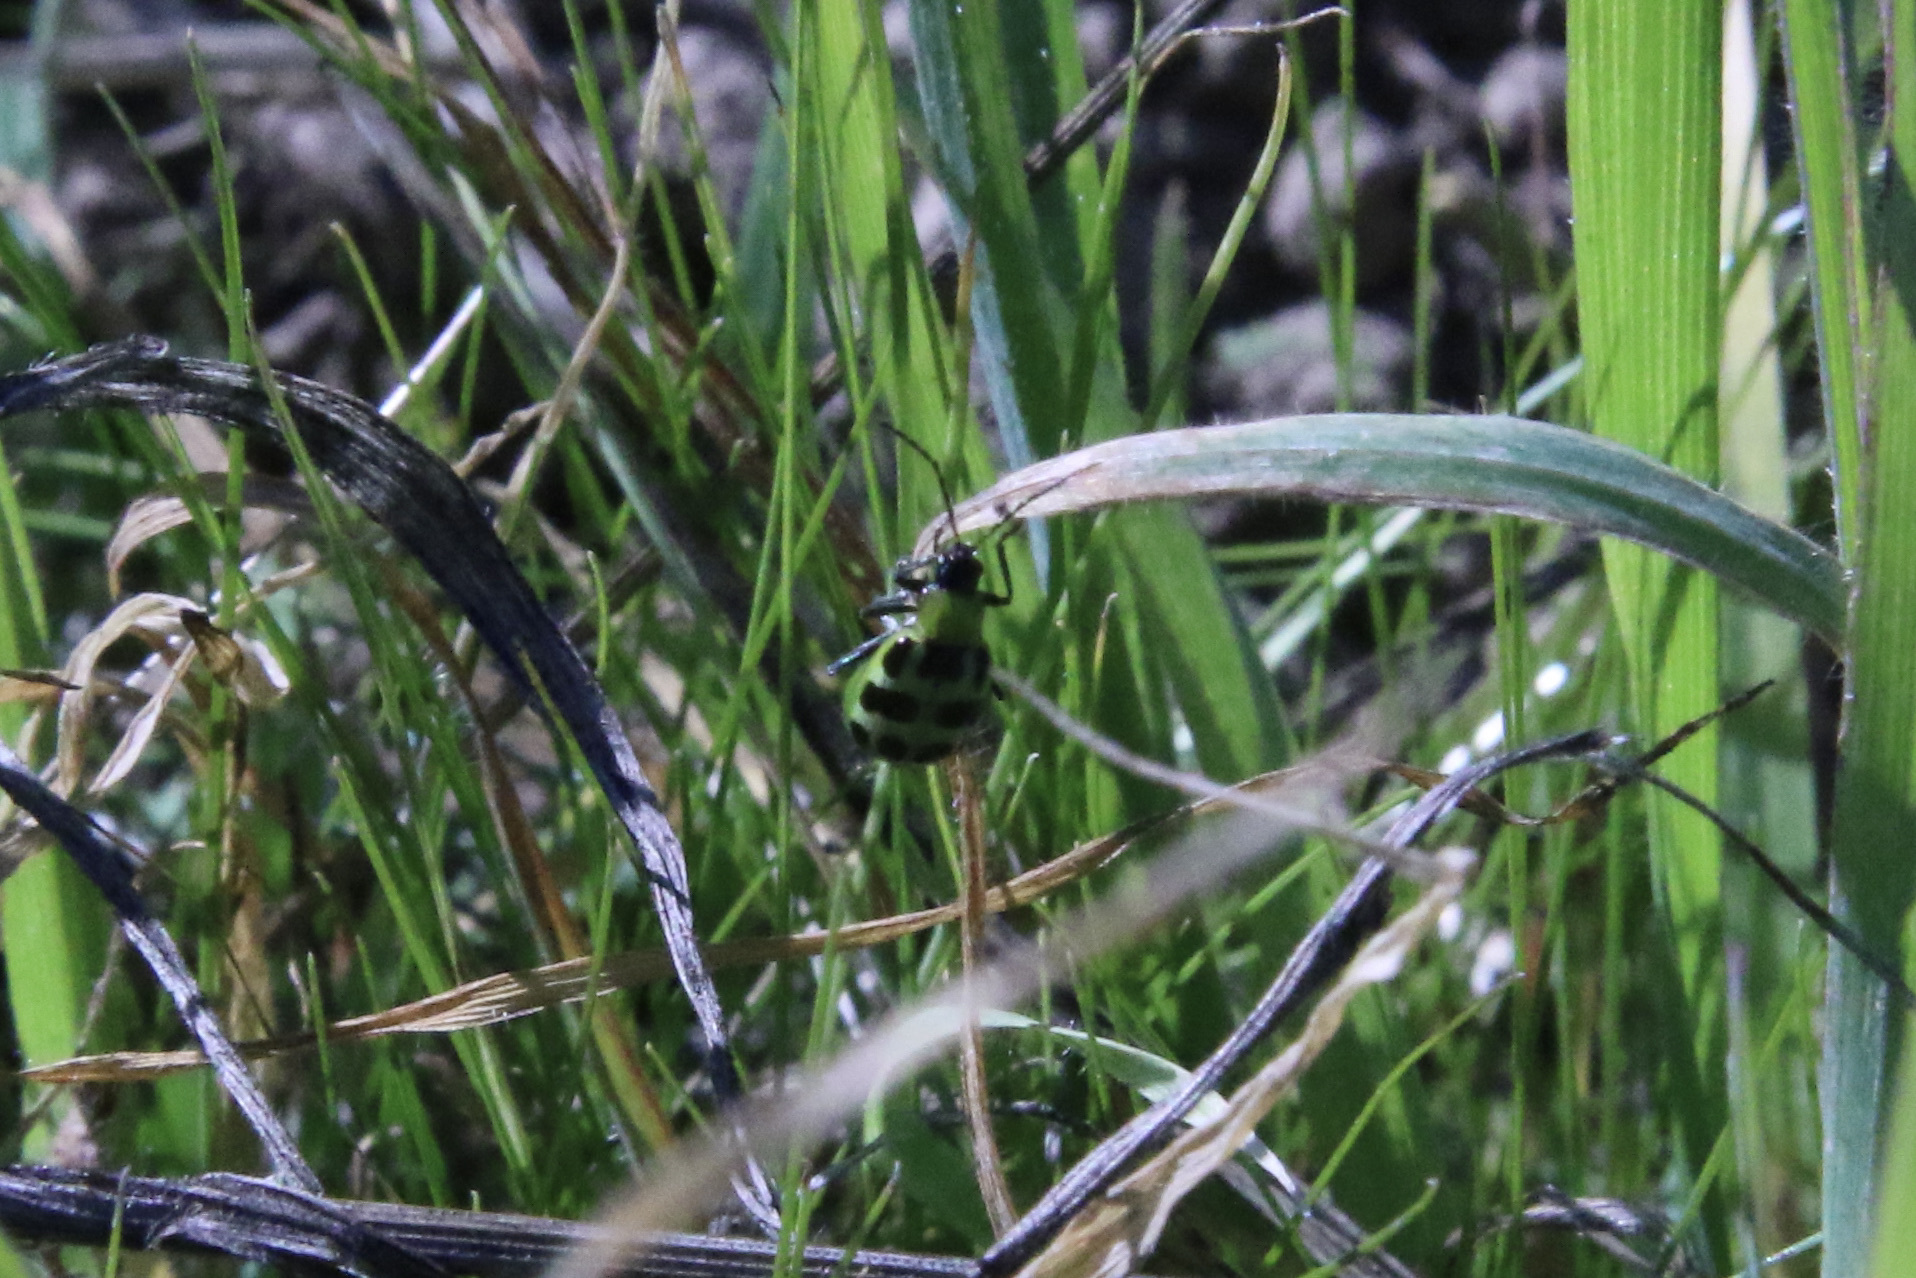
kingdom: Animalia
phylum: Arthropoda
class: Insecta
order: Coleoptera
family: Chrysomelidae
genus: Diabrotica
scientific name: Diabrotica undecimpunctata
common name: Spotted cucumber beetle
